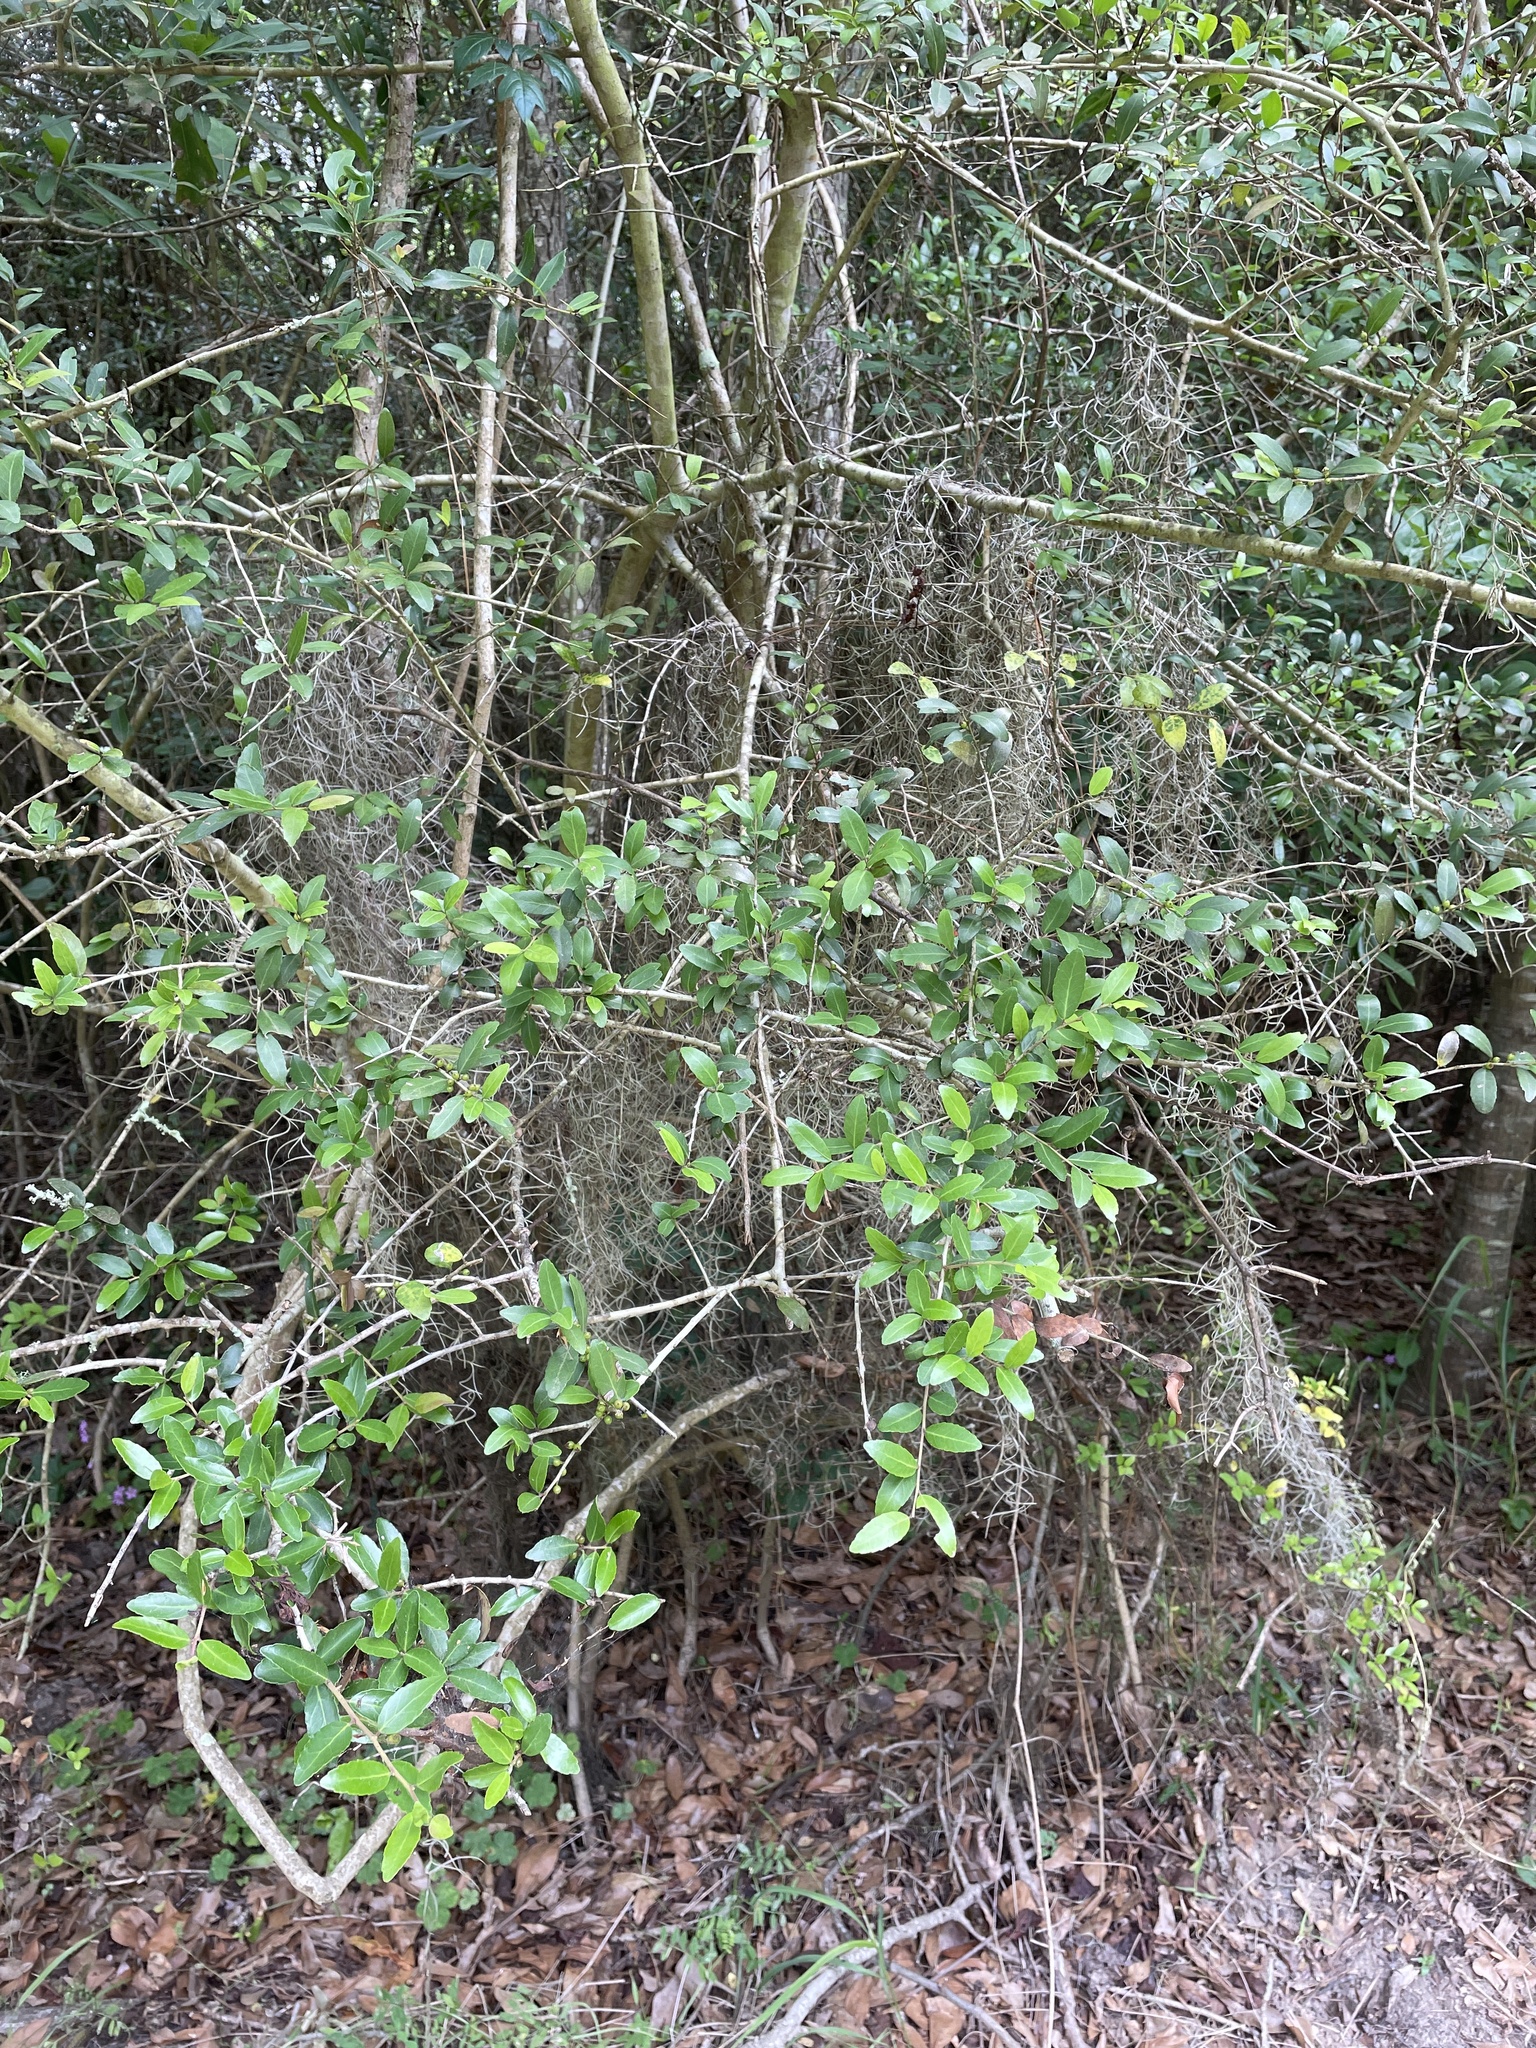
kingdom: Plantae
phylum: Tracheophyta
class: Magnoliopsida
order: Aquifoliales
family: Aquifoliaceae
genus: Ilex
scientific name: Ilex vomitoria
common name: Yaupon holly
